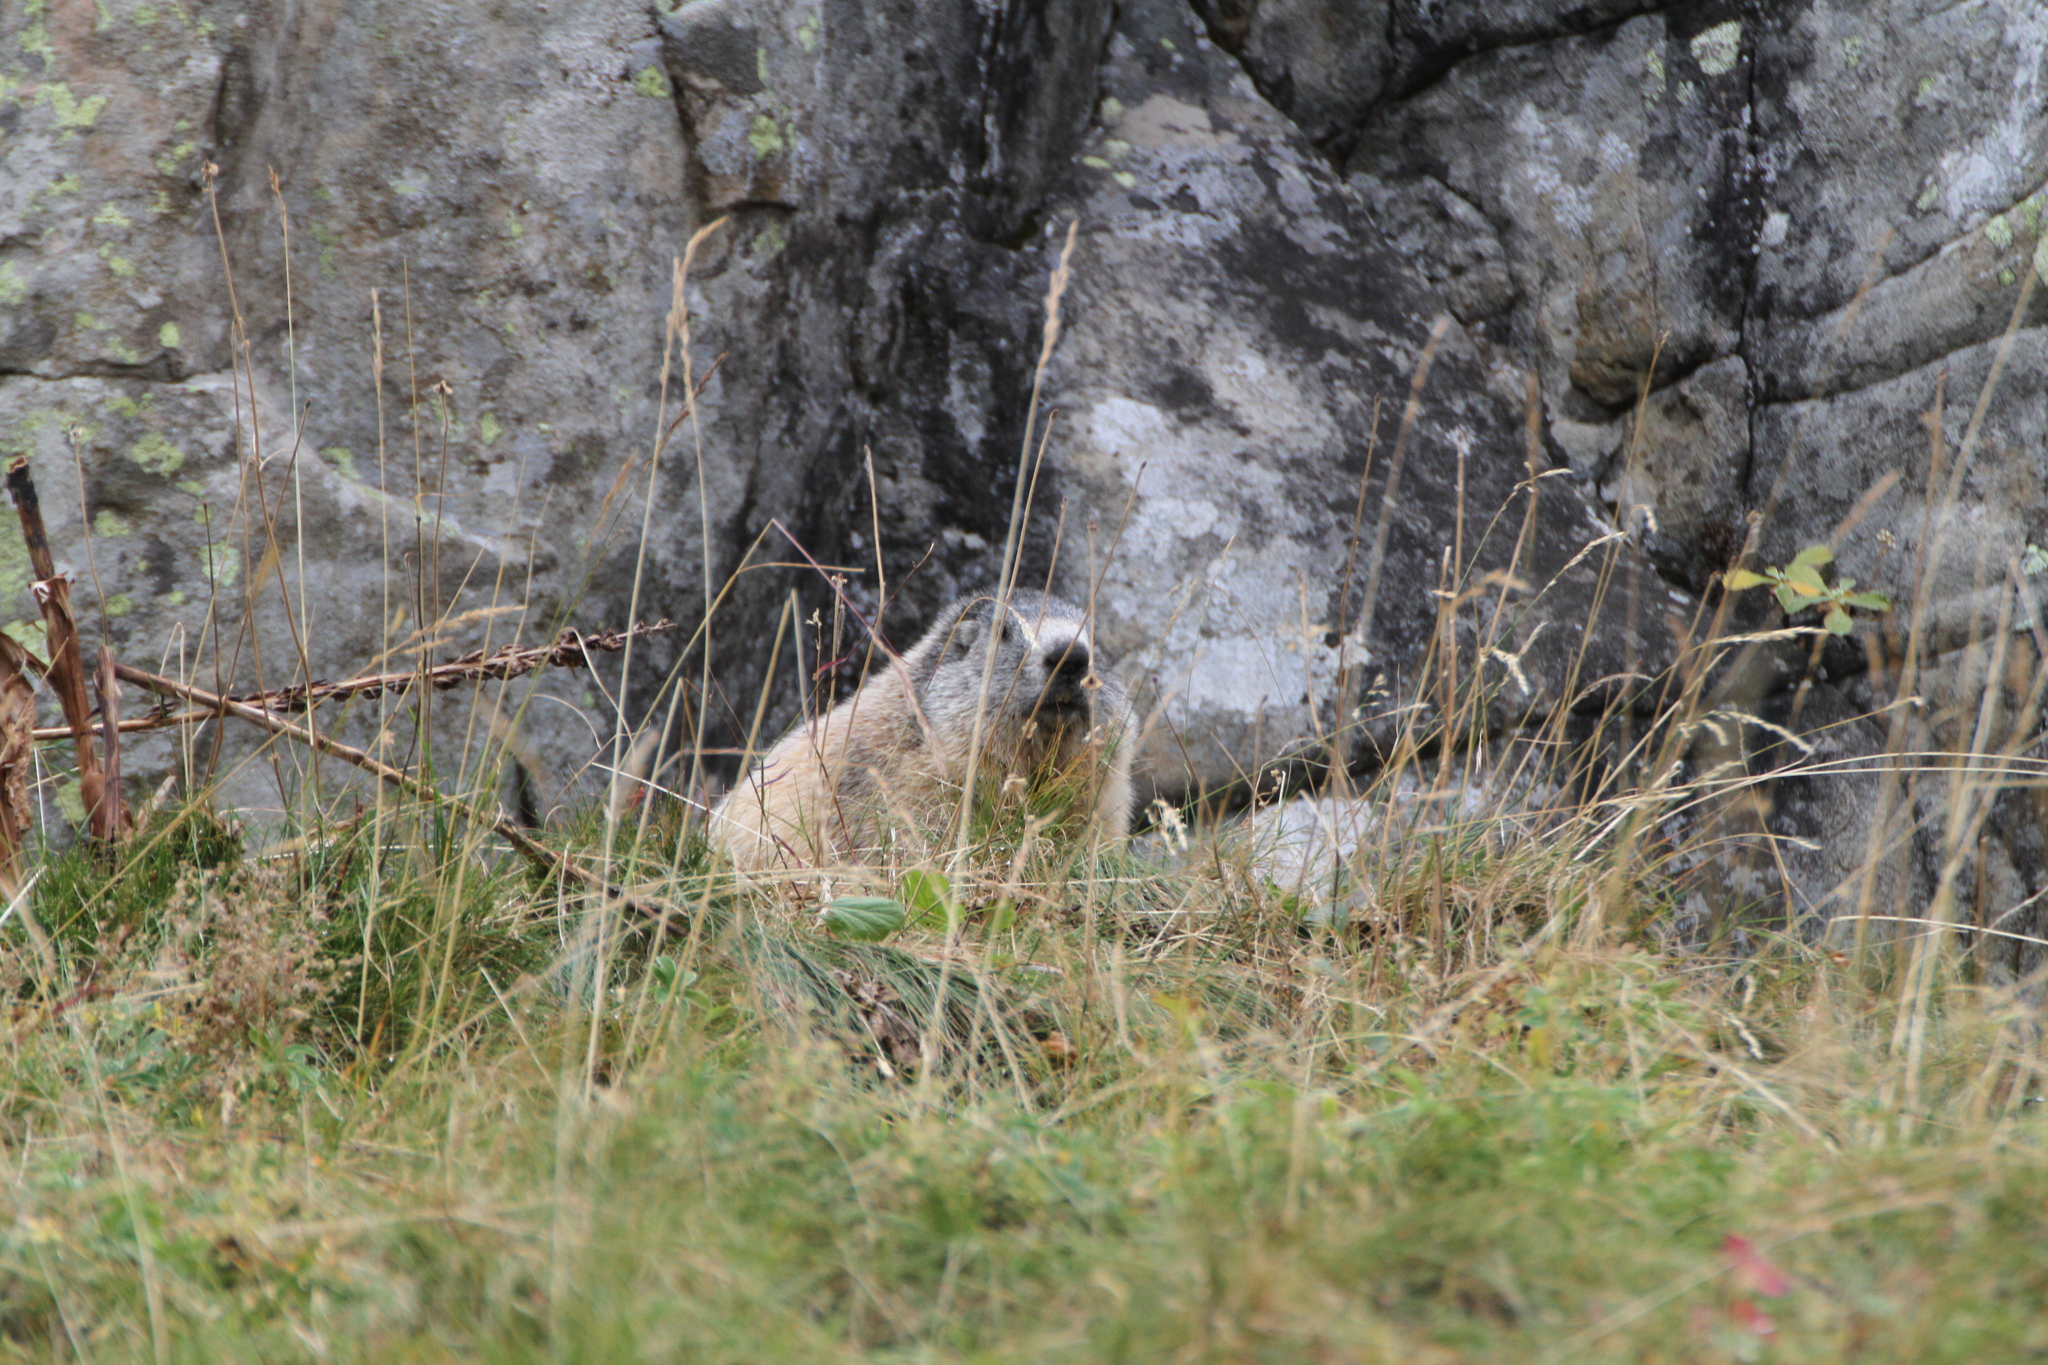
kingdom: Animalia
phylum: Chordata
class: Mammalia
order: Rodentia
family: Sciuridae
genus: Marmota
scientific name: Marmota marmota
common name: Alpine marmot
